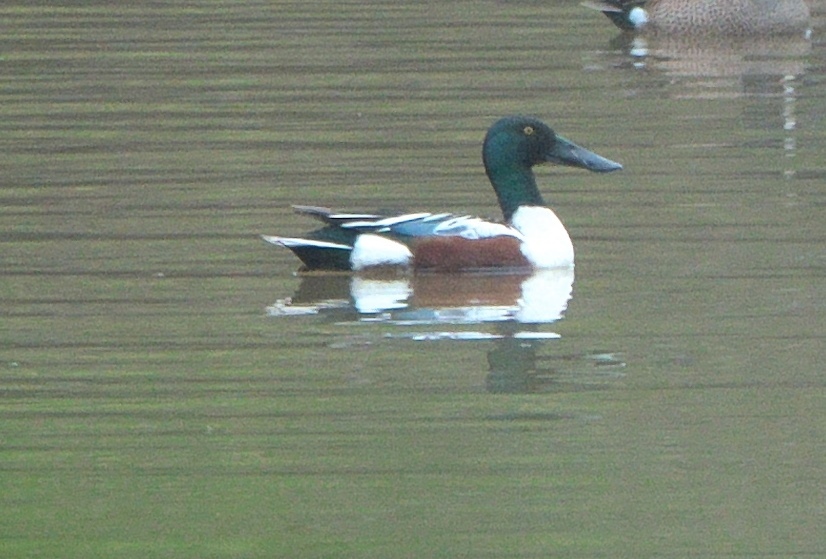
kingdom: Animalia
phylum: Chordata
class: Aves
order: Anseriformes
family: Anatidae
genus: Spatula
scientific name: Spatula clypeata
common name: Northern shoveler
